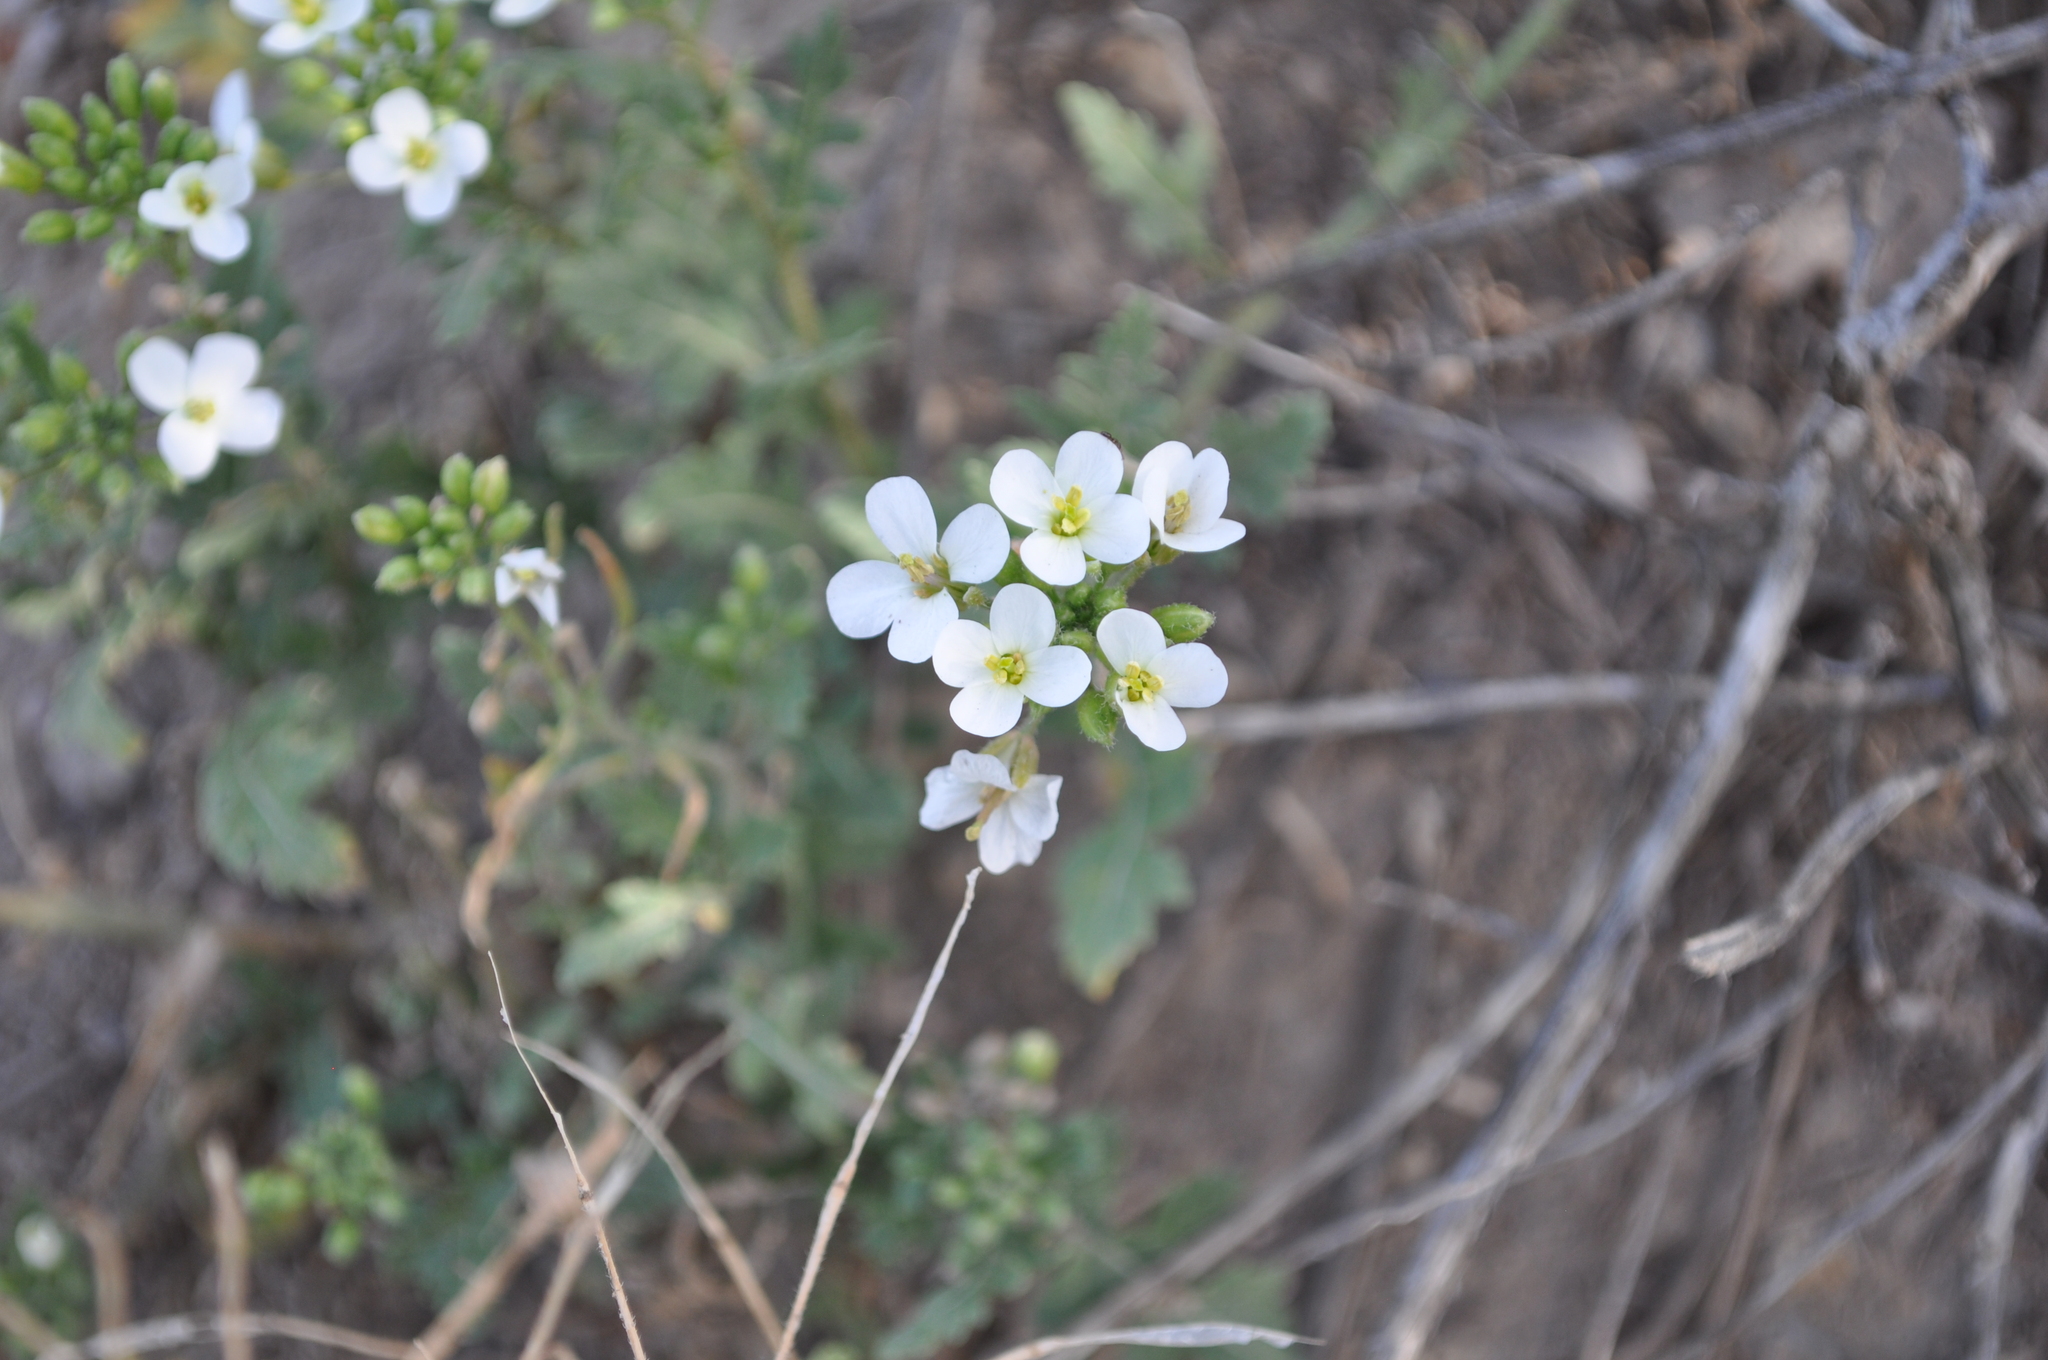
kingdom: Plantae
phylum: Tracheophyta
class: Magnoliopsida
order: Brassicales
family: Brassicaceae
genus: Diplotaxis
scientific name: Diplotaxis erucoides
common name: White rocket
